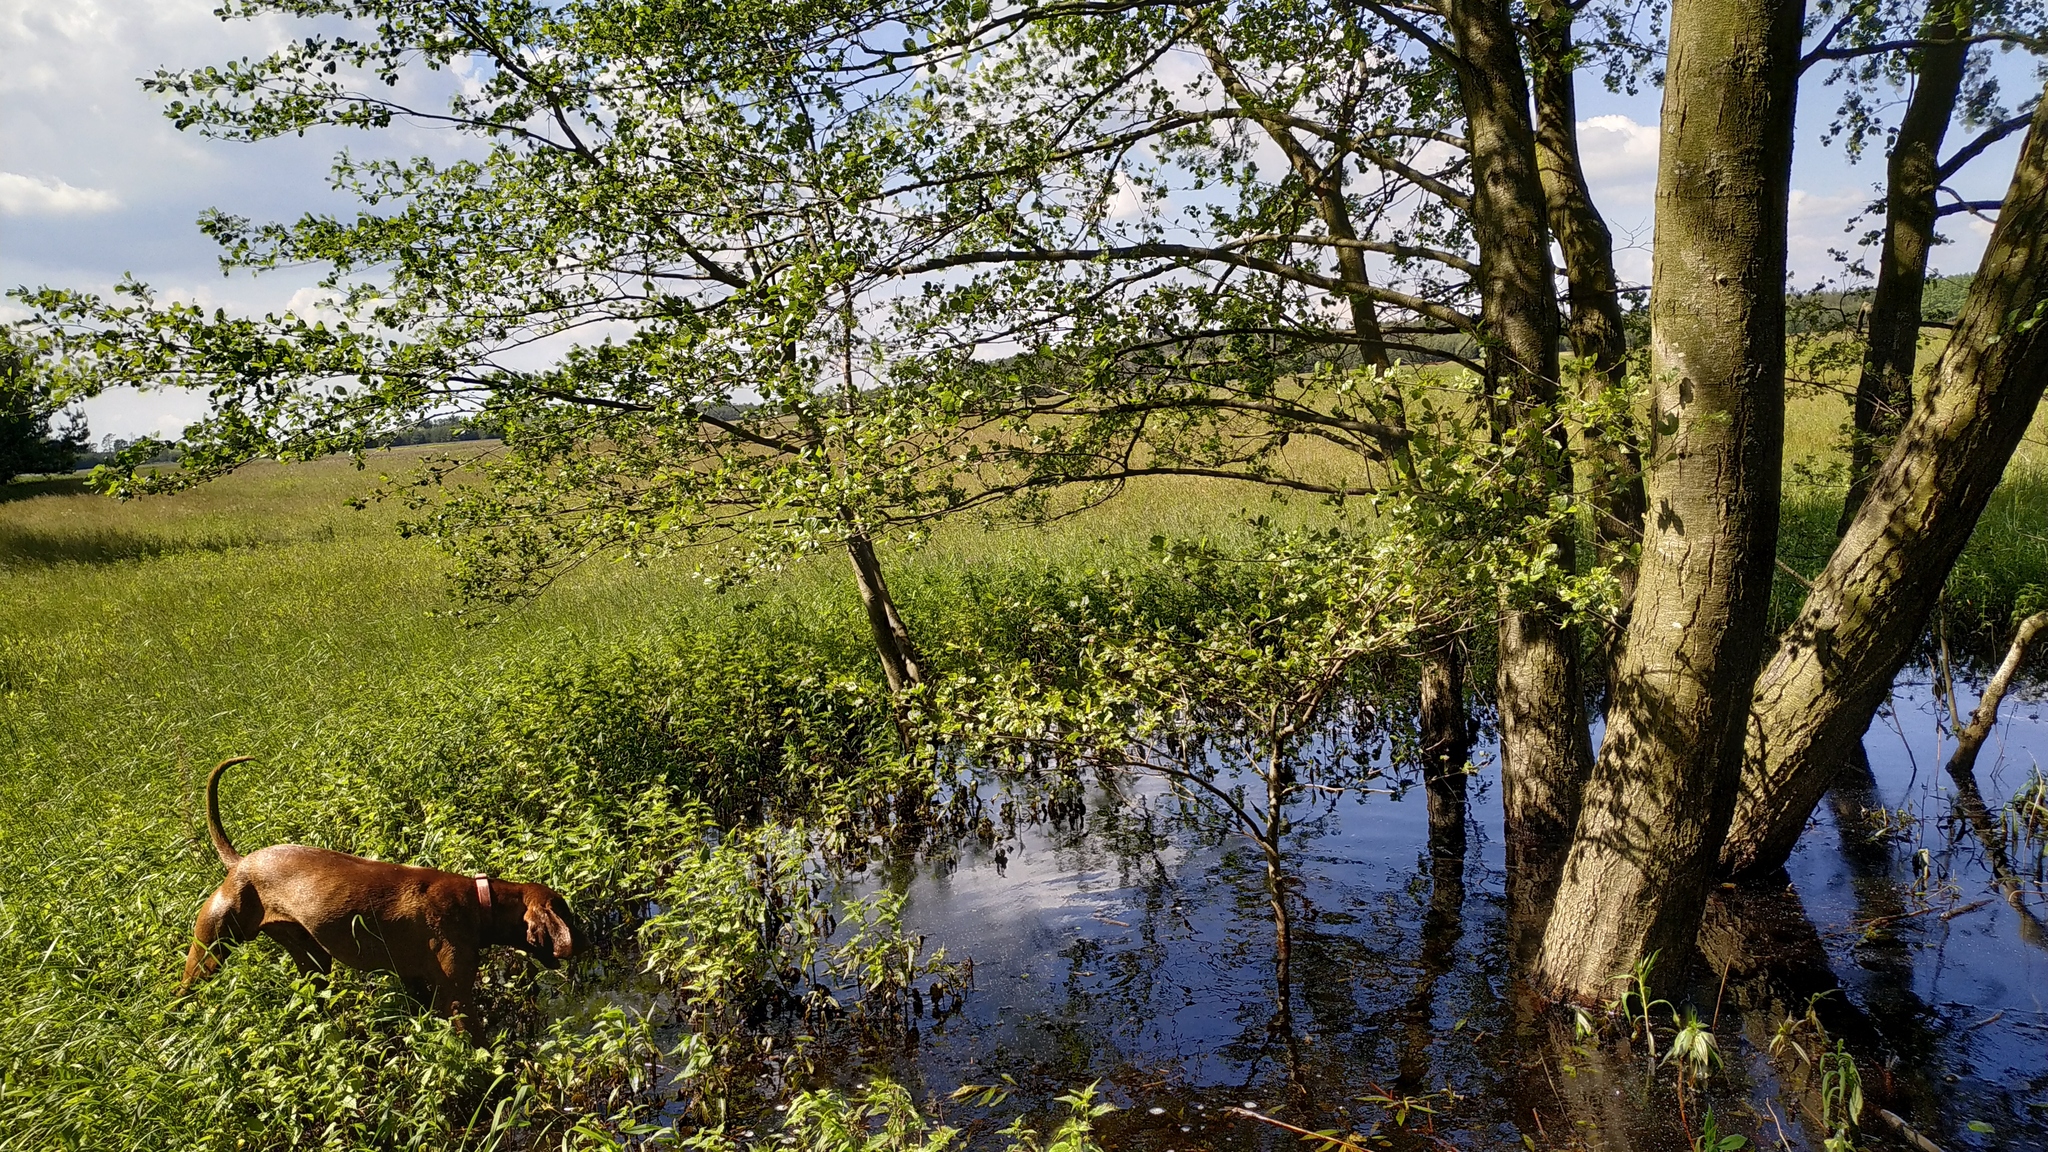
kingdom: Plantae
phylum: Tracheophyta
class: Magnoliopsida
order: Fagales
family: Betulaceae
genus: Alnus
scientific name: Alnus glutinosa
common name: Black alder
